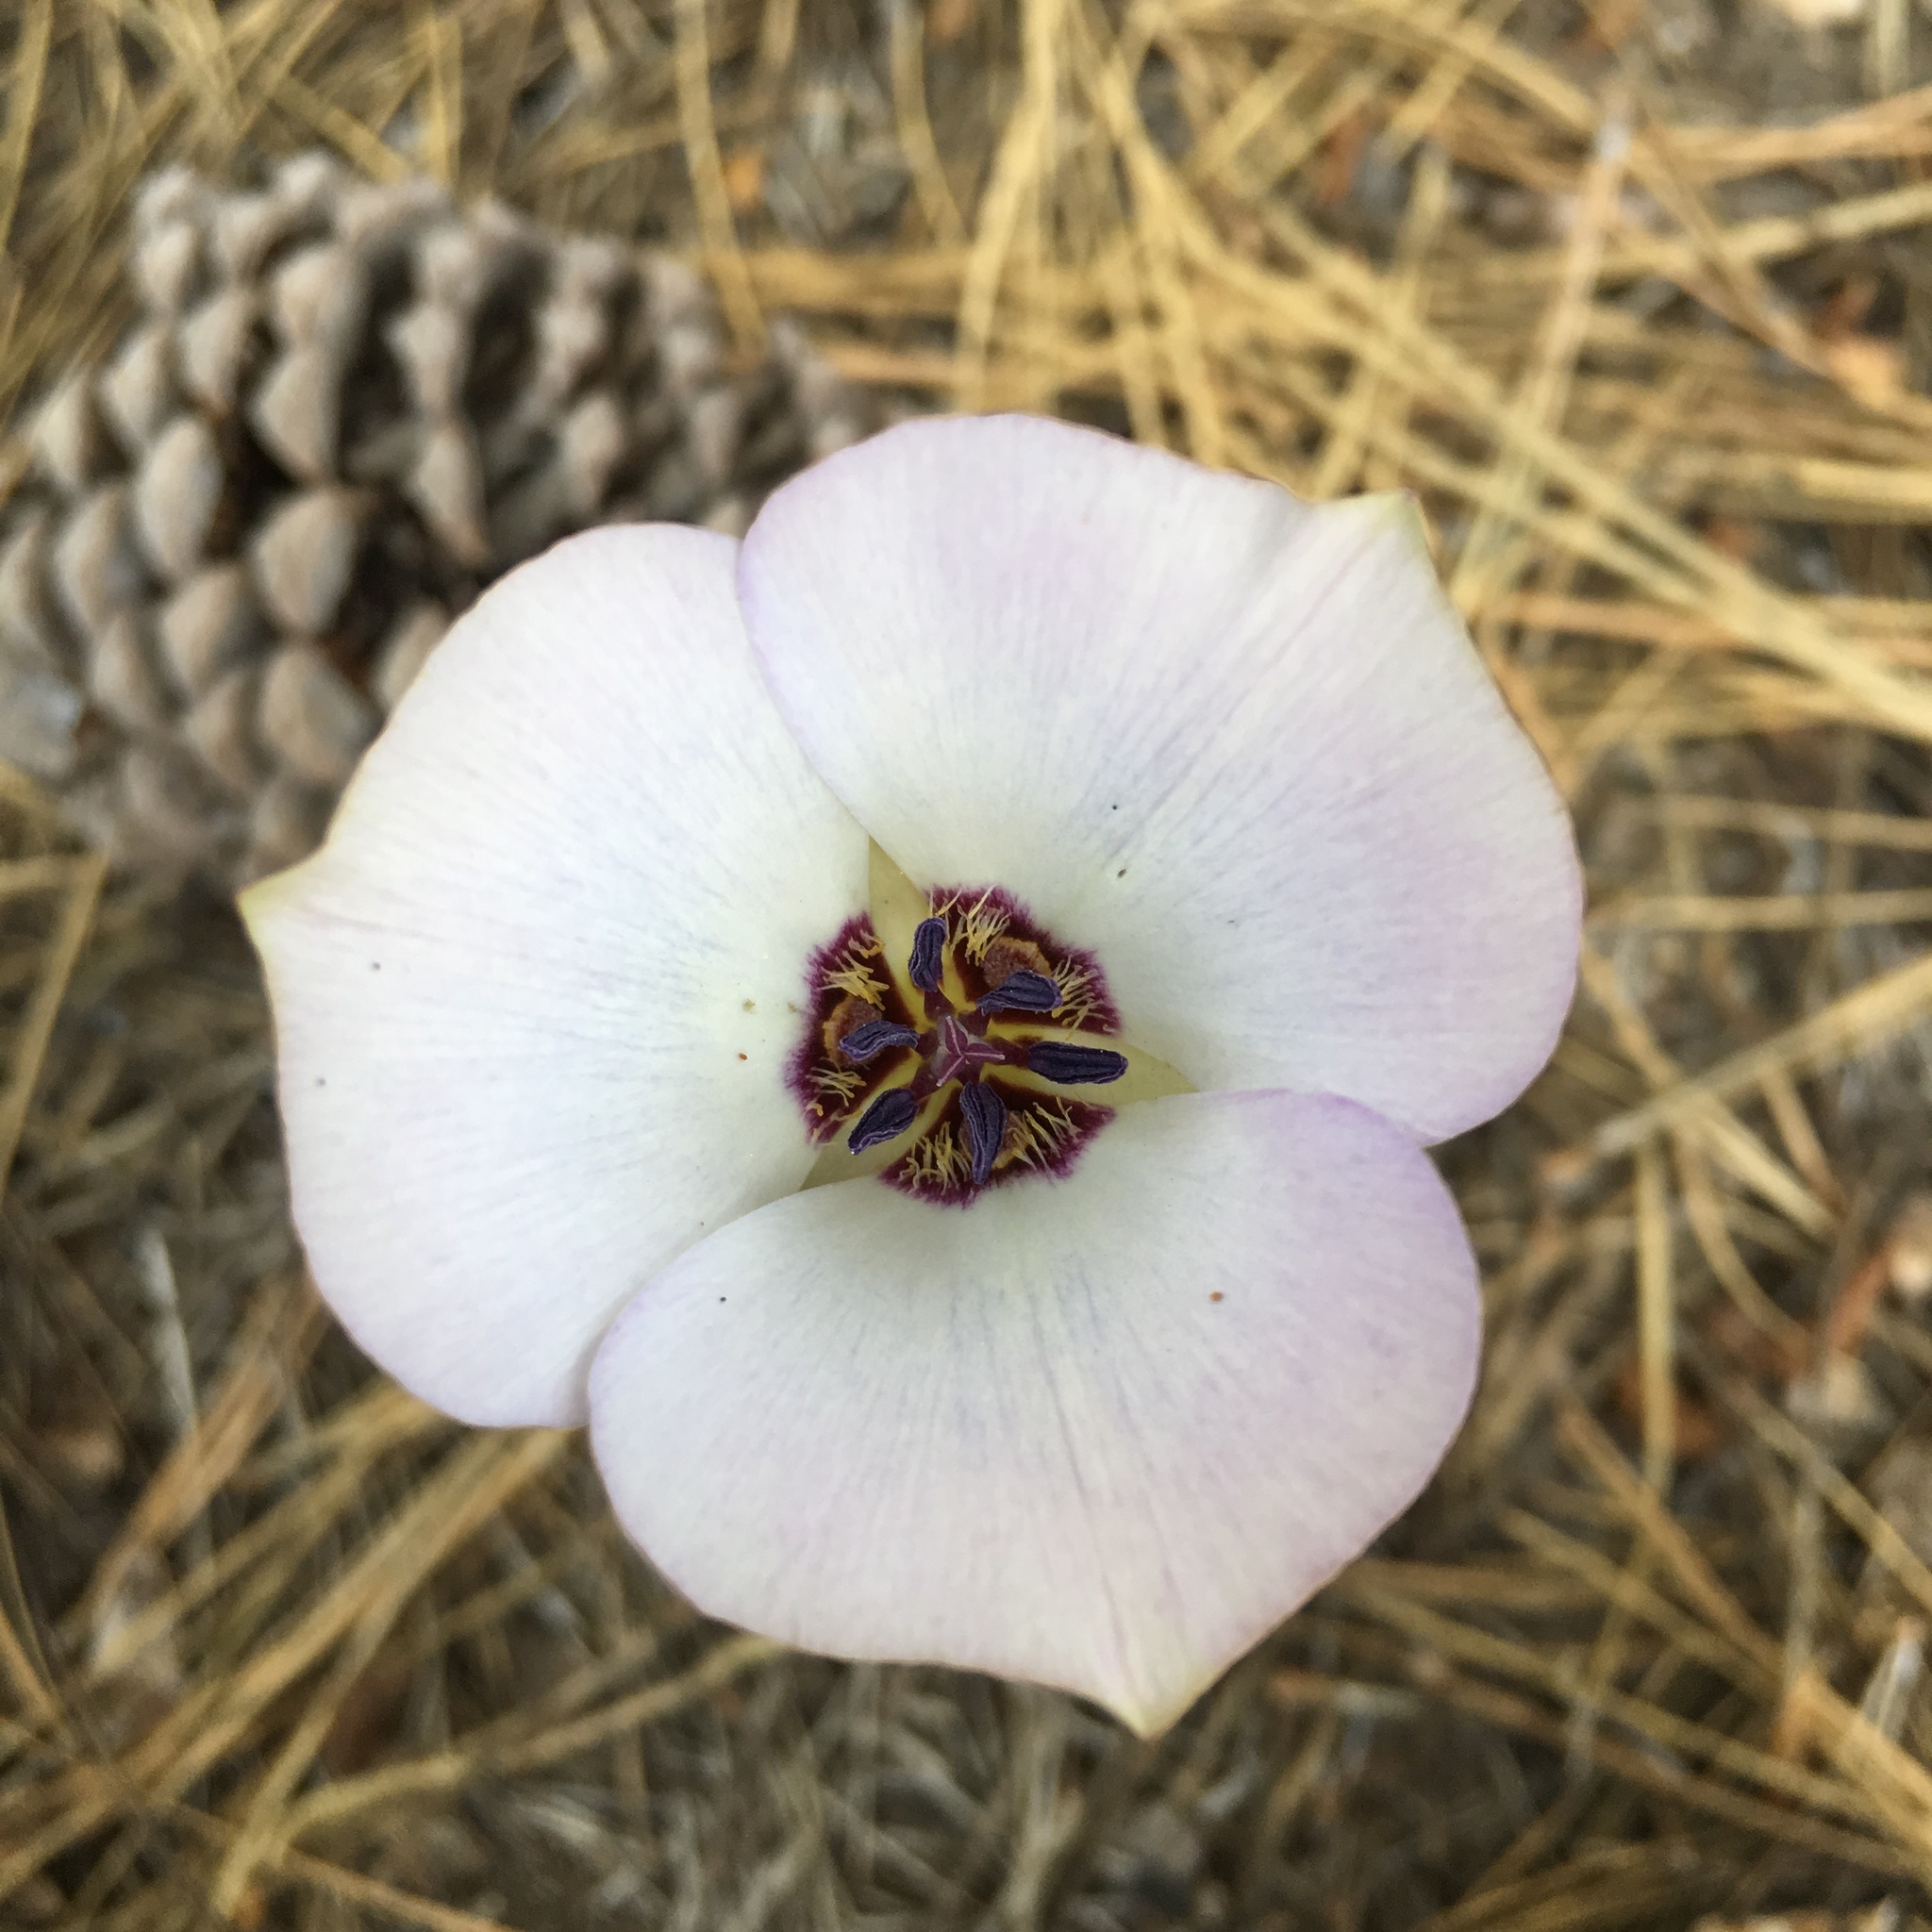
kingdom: Plantae
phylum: Tracheophyta
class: Liliopsida
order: Liliales
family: Liliaceae
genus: Calochortus
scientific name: Calochortus invenustus
